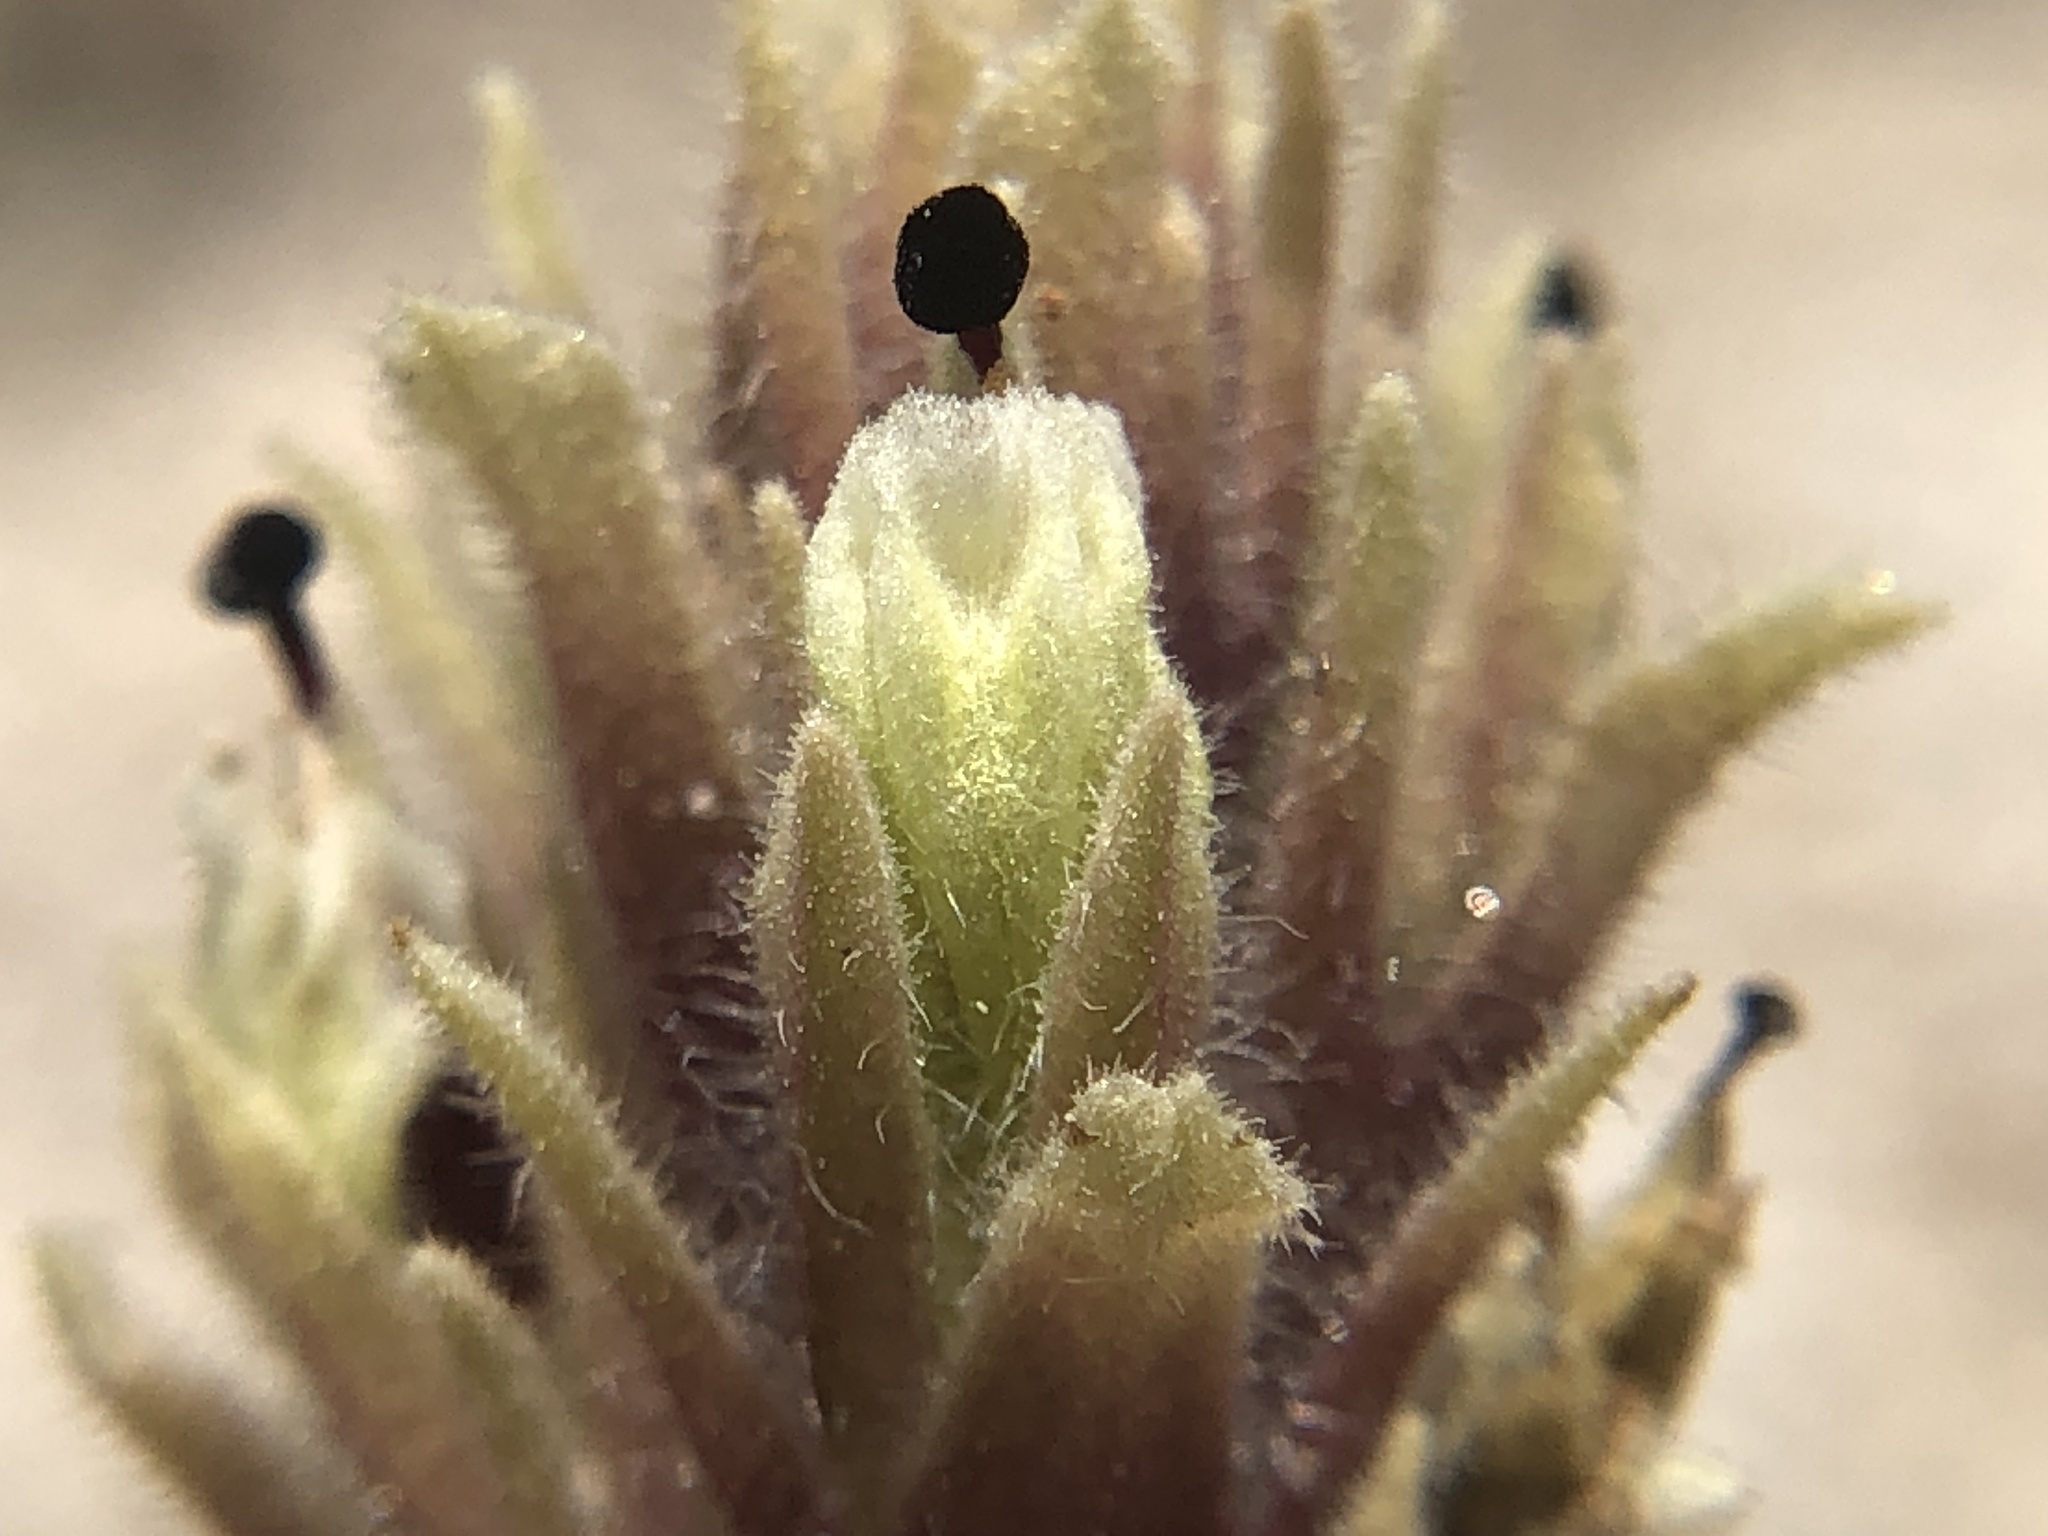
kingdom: Plantae
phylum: Tracheophyta
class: Magnoliopsida
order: Lamiales
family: Orobanchaceae
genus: Castilleja
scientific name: Castilleja nana
